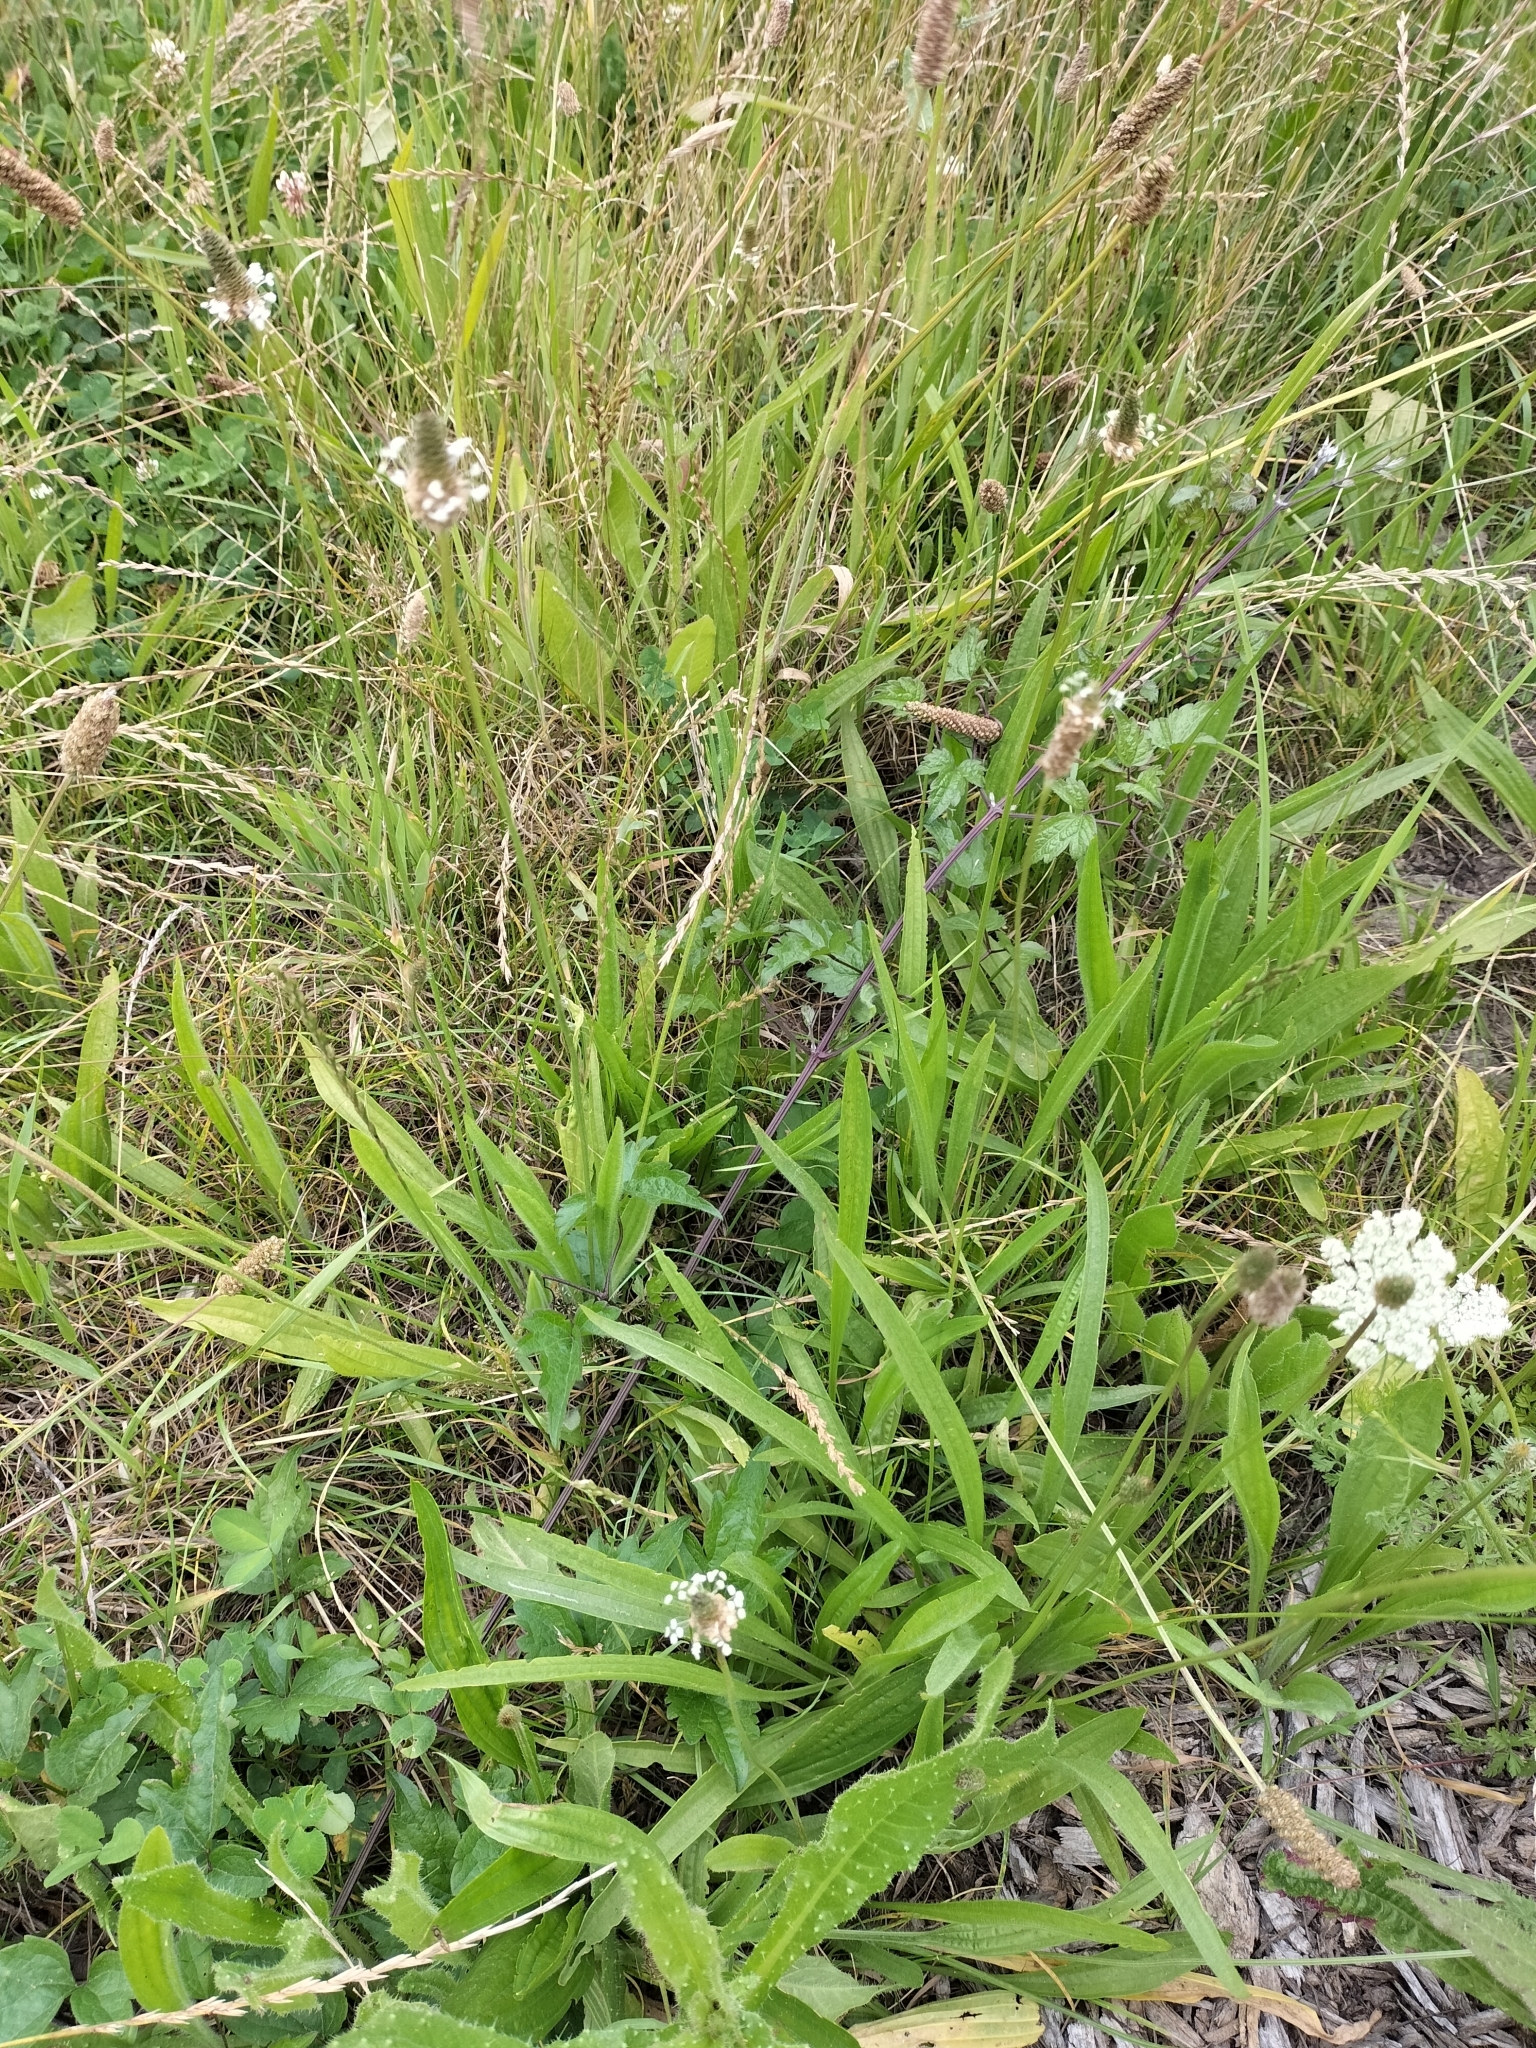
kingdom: Plantae
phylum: Tracheophyta
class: Magnoliopsida
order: Lamiales
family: Plantaginaceae
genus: Plantago
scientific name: Plantago lanceolata
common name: Ribwort plantain
